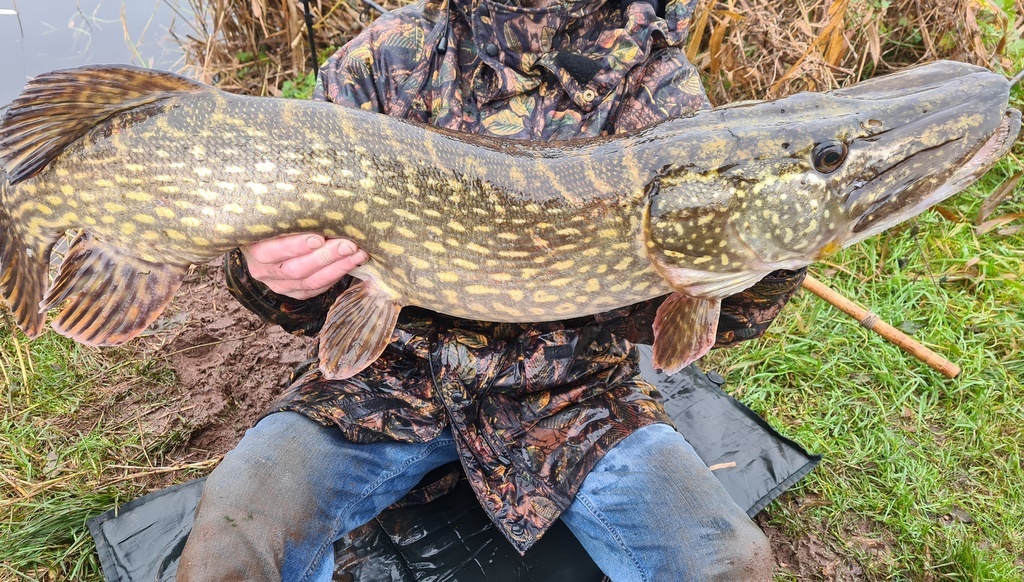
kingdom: Animalia
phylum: Chordata
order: Esociformes
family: Esocidae
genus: Esox
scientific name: Esox lucius
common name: Northern pike
